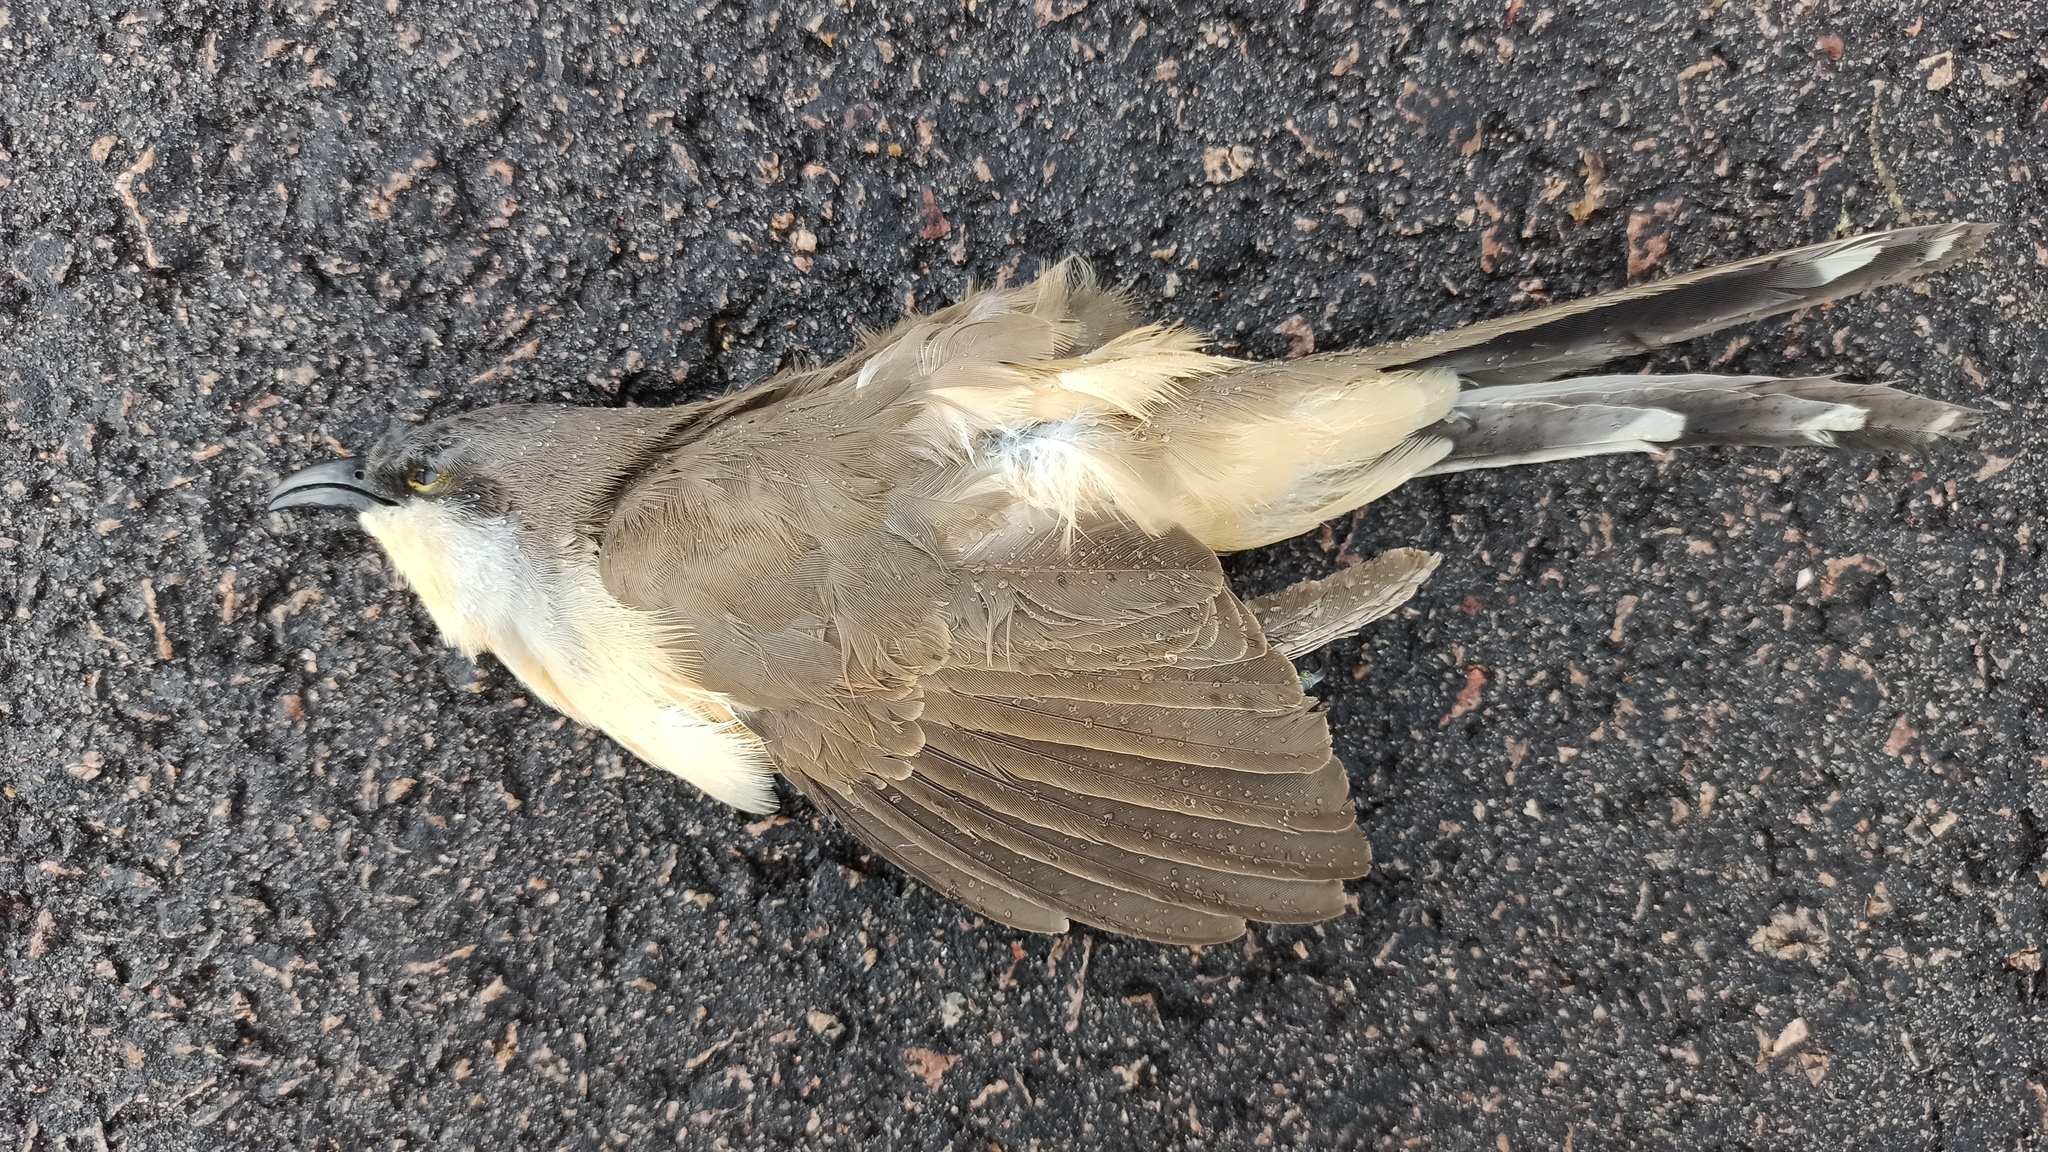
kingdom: Animalia
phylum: Chordata
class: Aves
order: Cuculiformes
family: Cuculidae
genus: Coccyzus
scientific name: Coccyzus melacoryphus
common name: Dark-billed cuckoo
